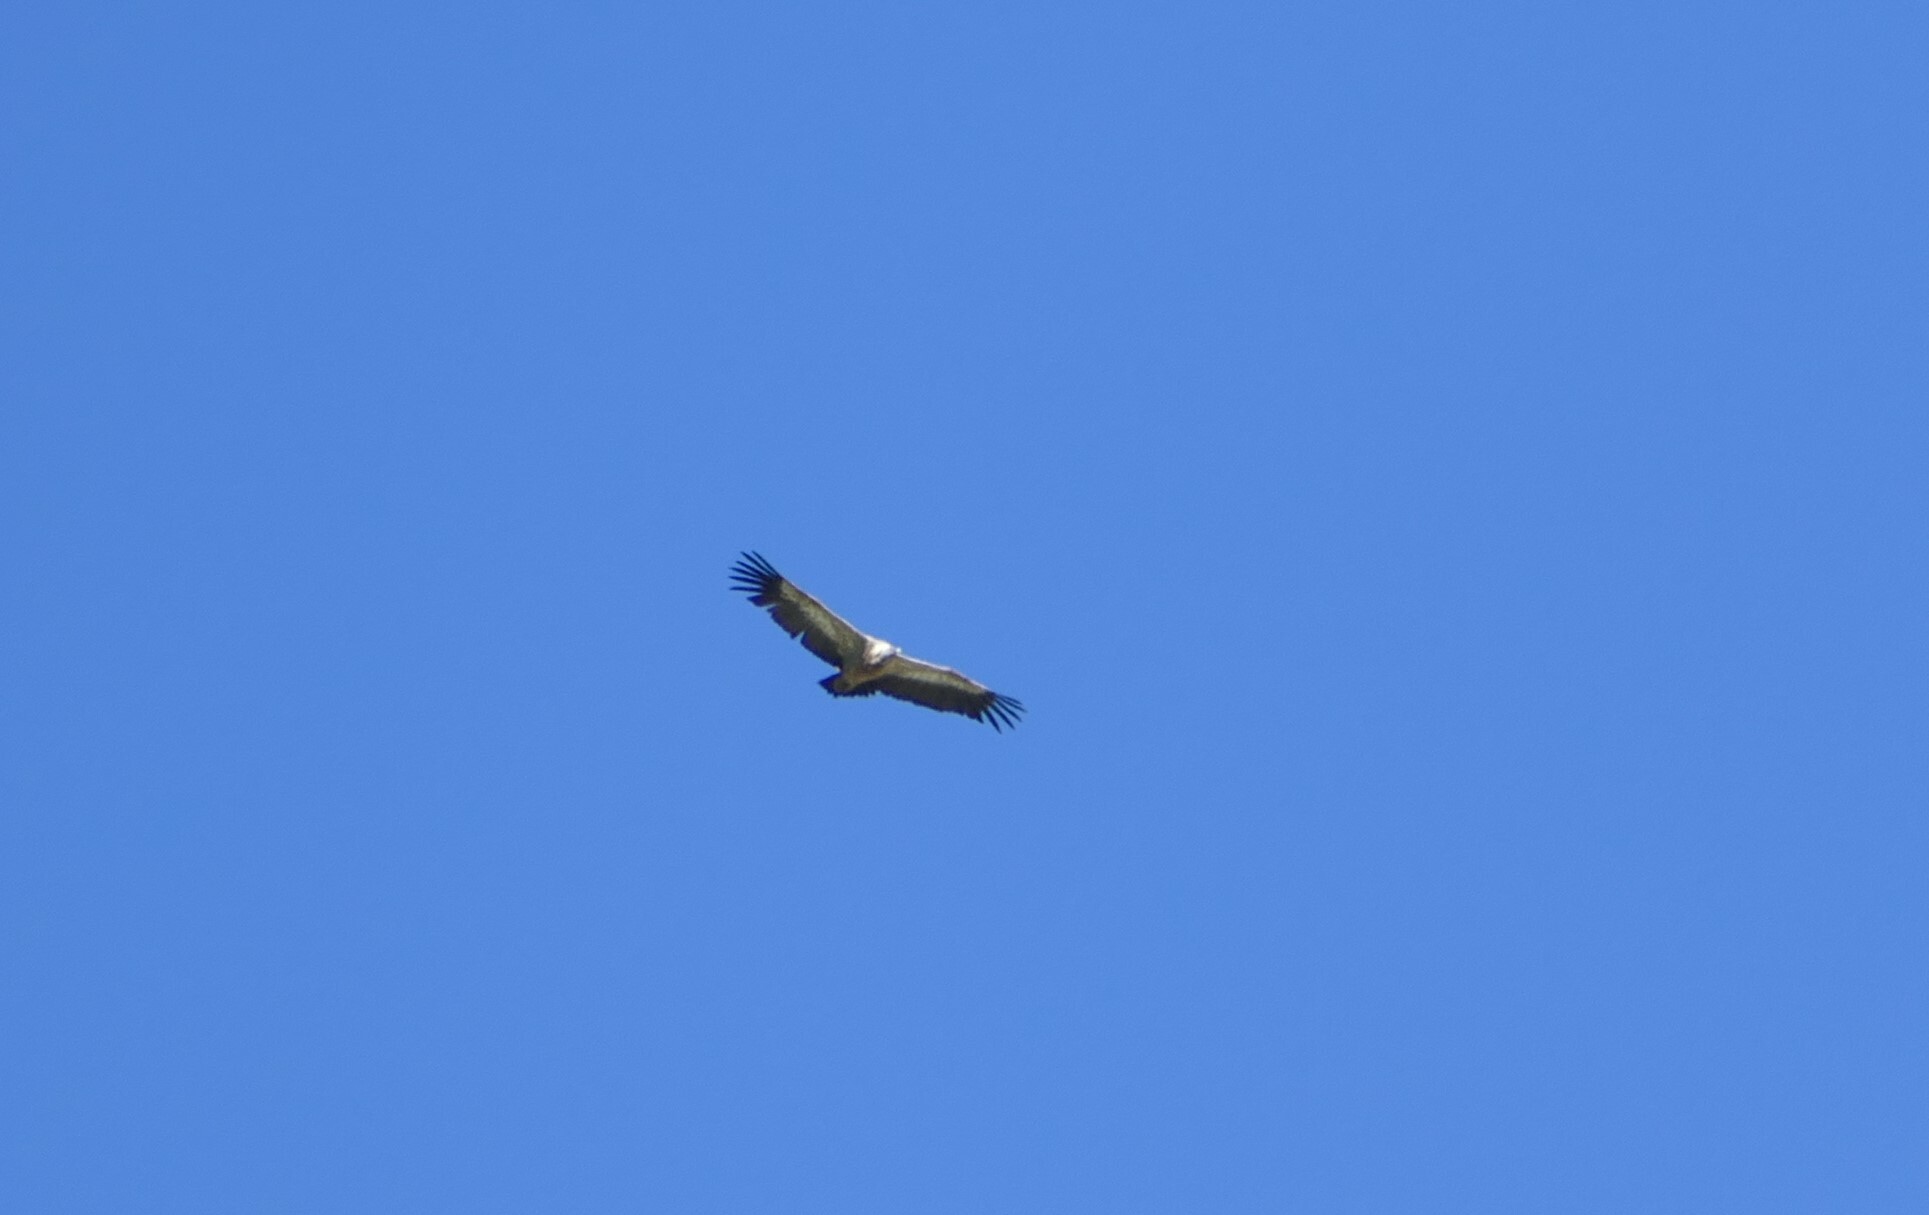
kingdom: Animalia
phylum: Chordata
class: Aves
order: Accipitriformes
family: Accipitridae
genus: Gyps
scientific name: Gyps fulvus
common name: Griffon vulture
